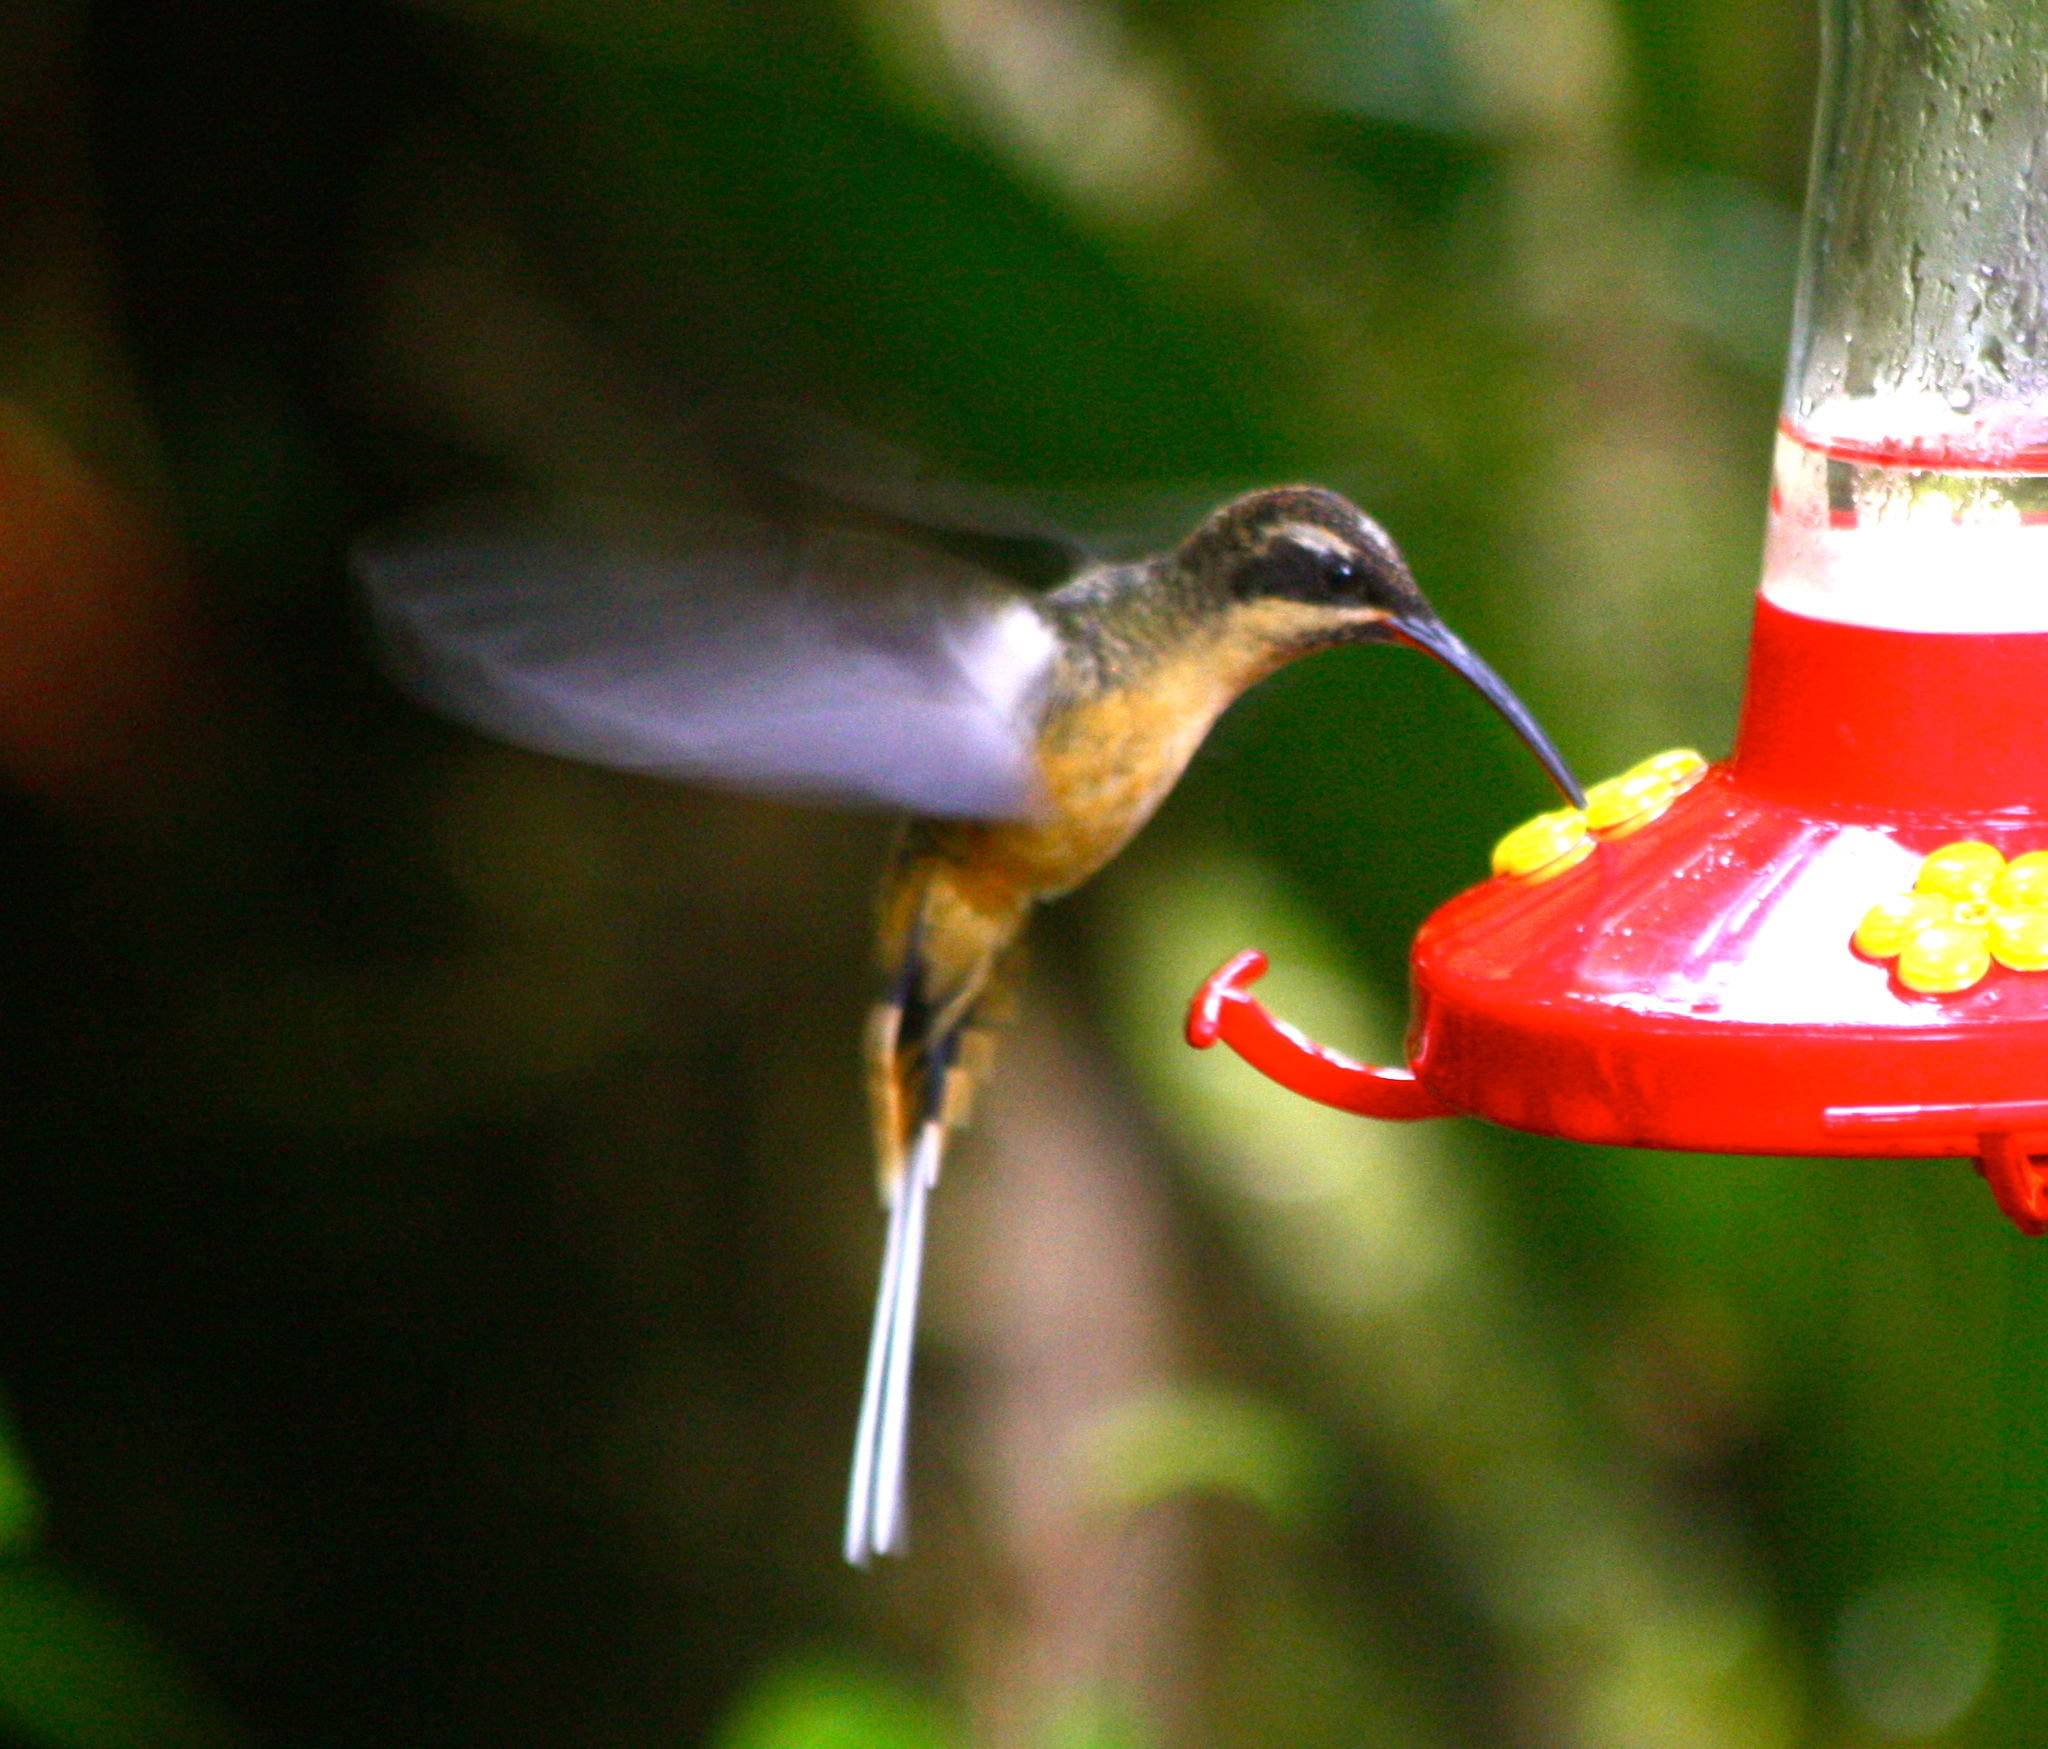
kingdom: Animalia
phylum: Chordata
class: Aves
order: Apodiformes
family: Trochilidae
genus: Phaethornis
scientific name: Phaethornis syrmatophorus
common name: Tawny-bellied hermit
